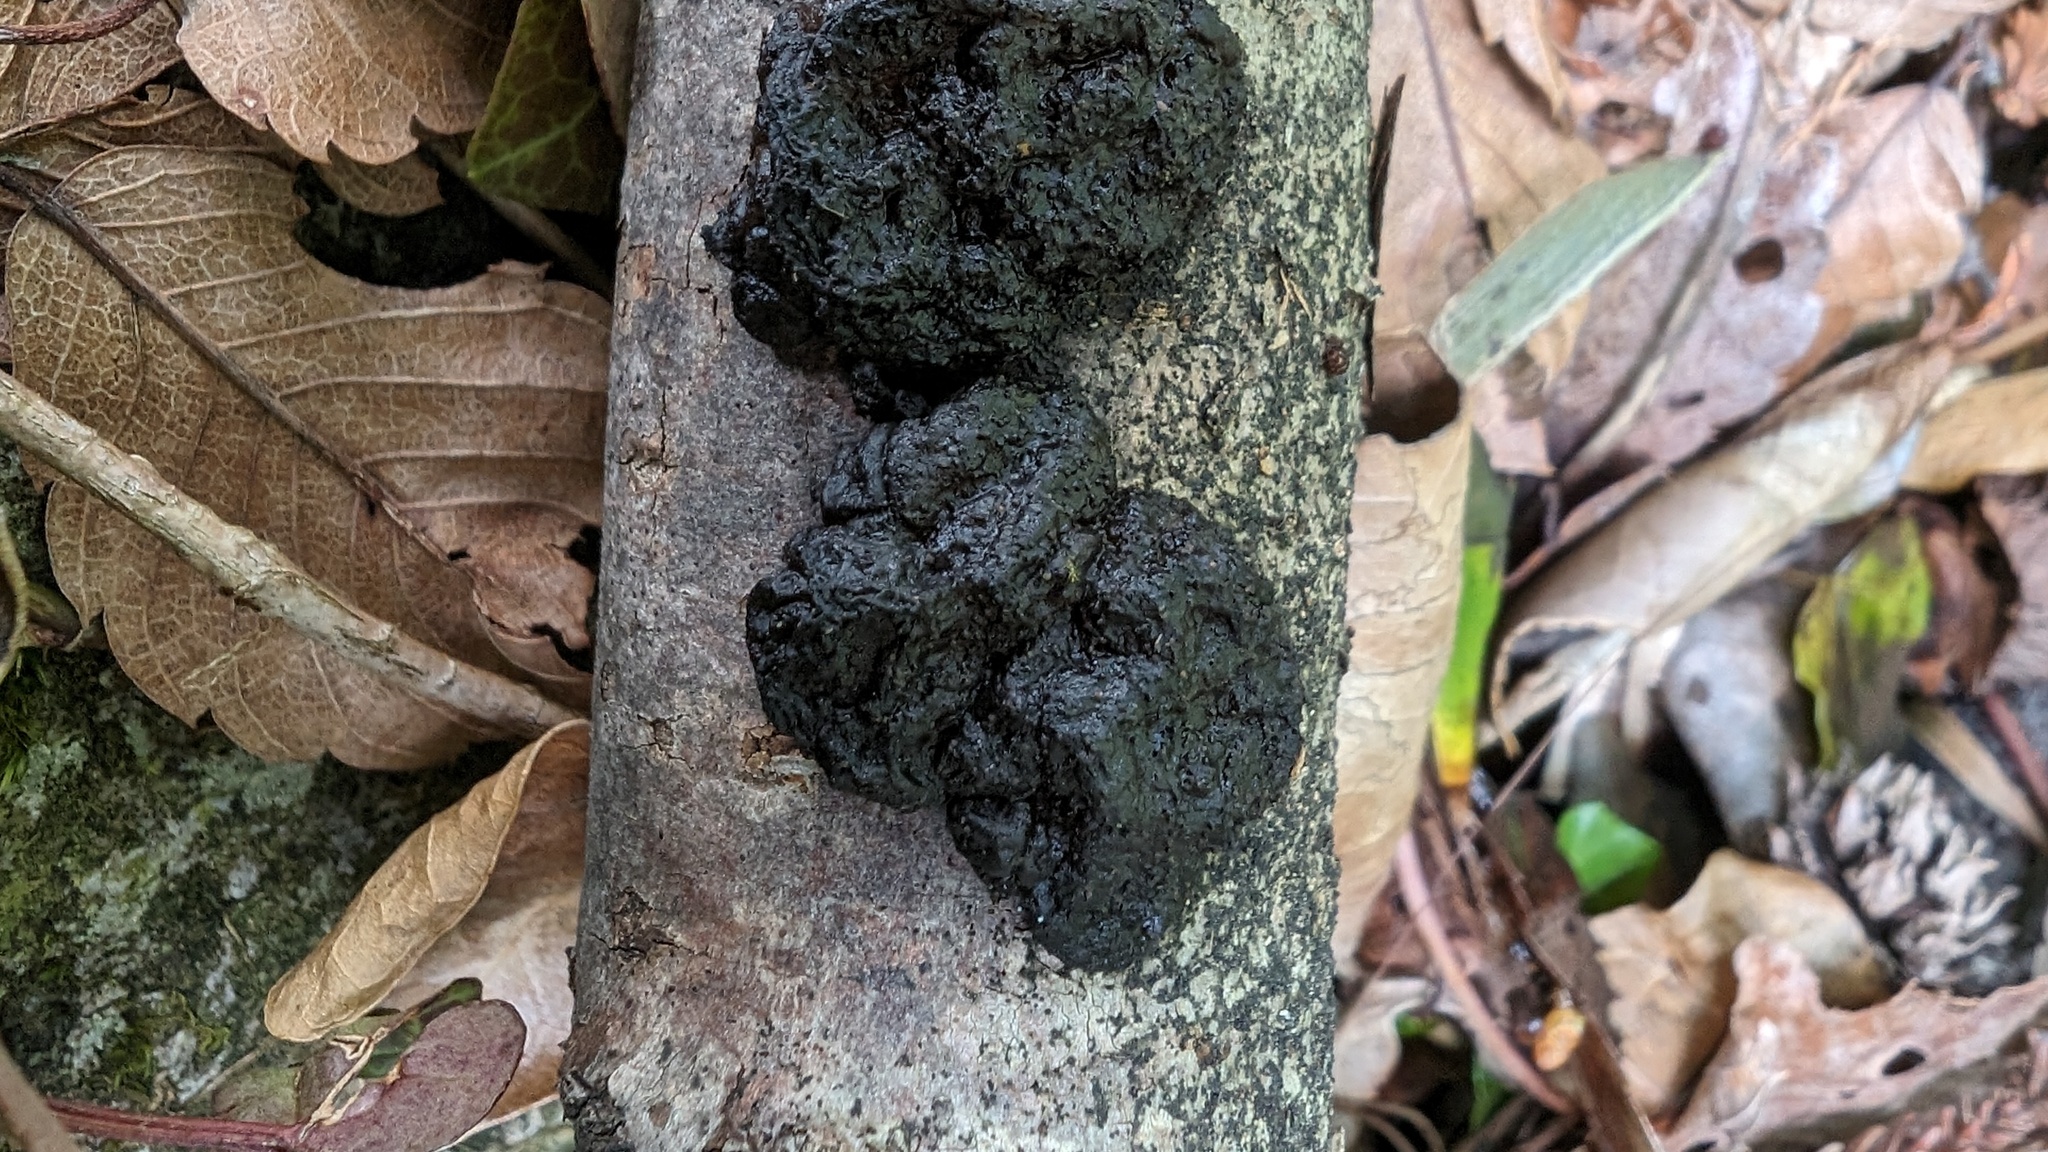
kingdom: Fungi
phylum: Basidiomycota
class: Agaricomycetes
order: Auriculariales
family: Auriculariaceae
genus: Exidia
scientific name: Exidia glandulosa
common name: Witches' butter
